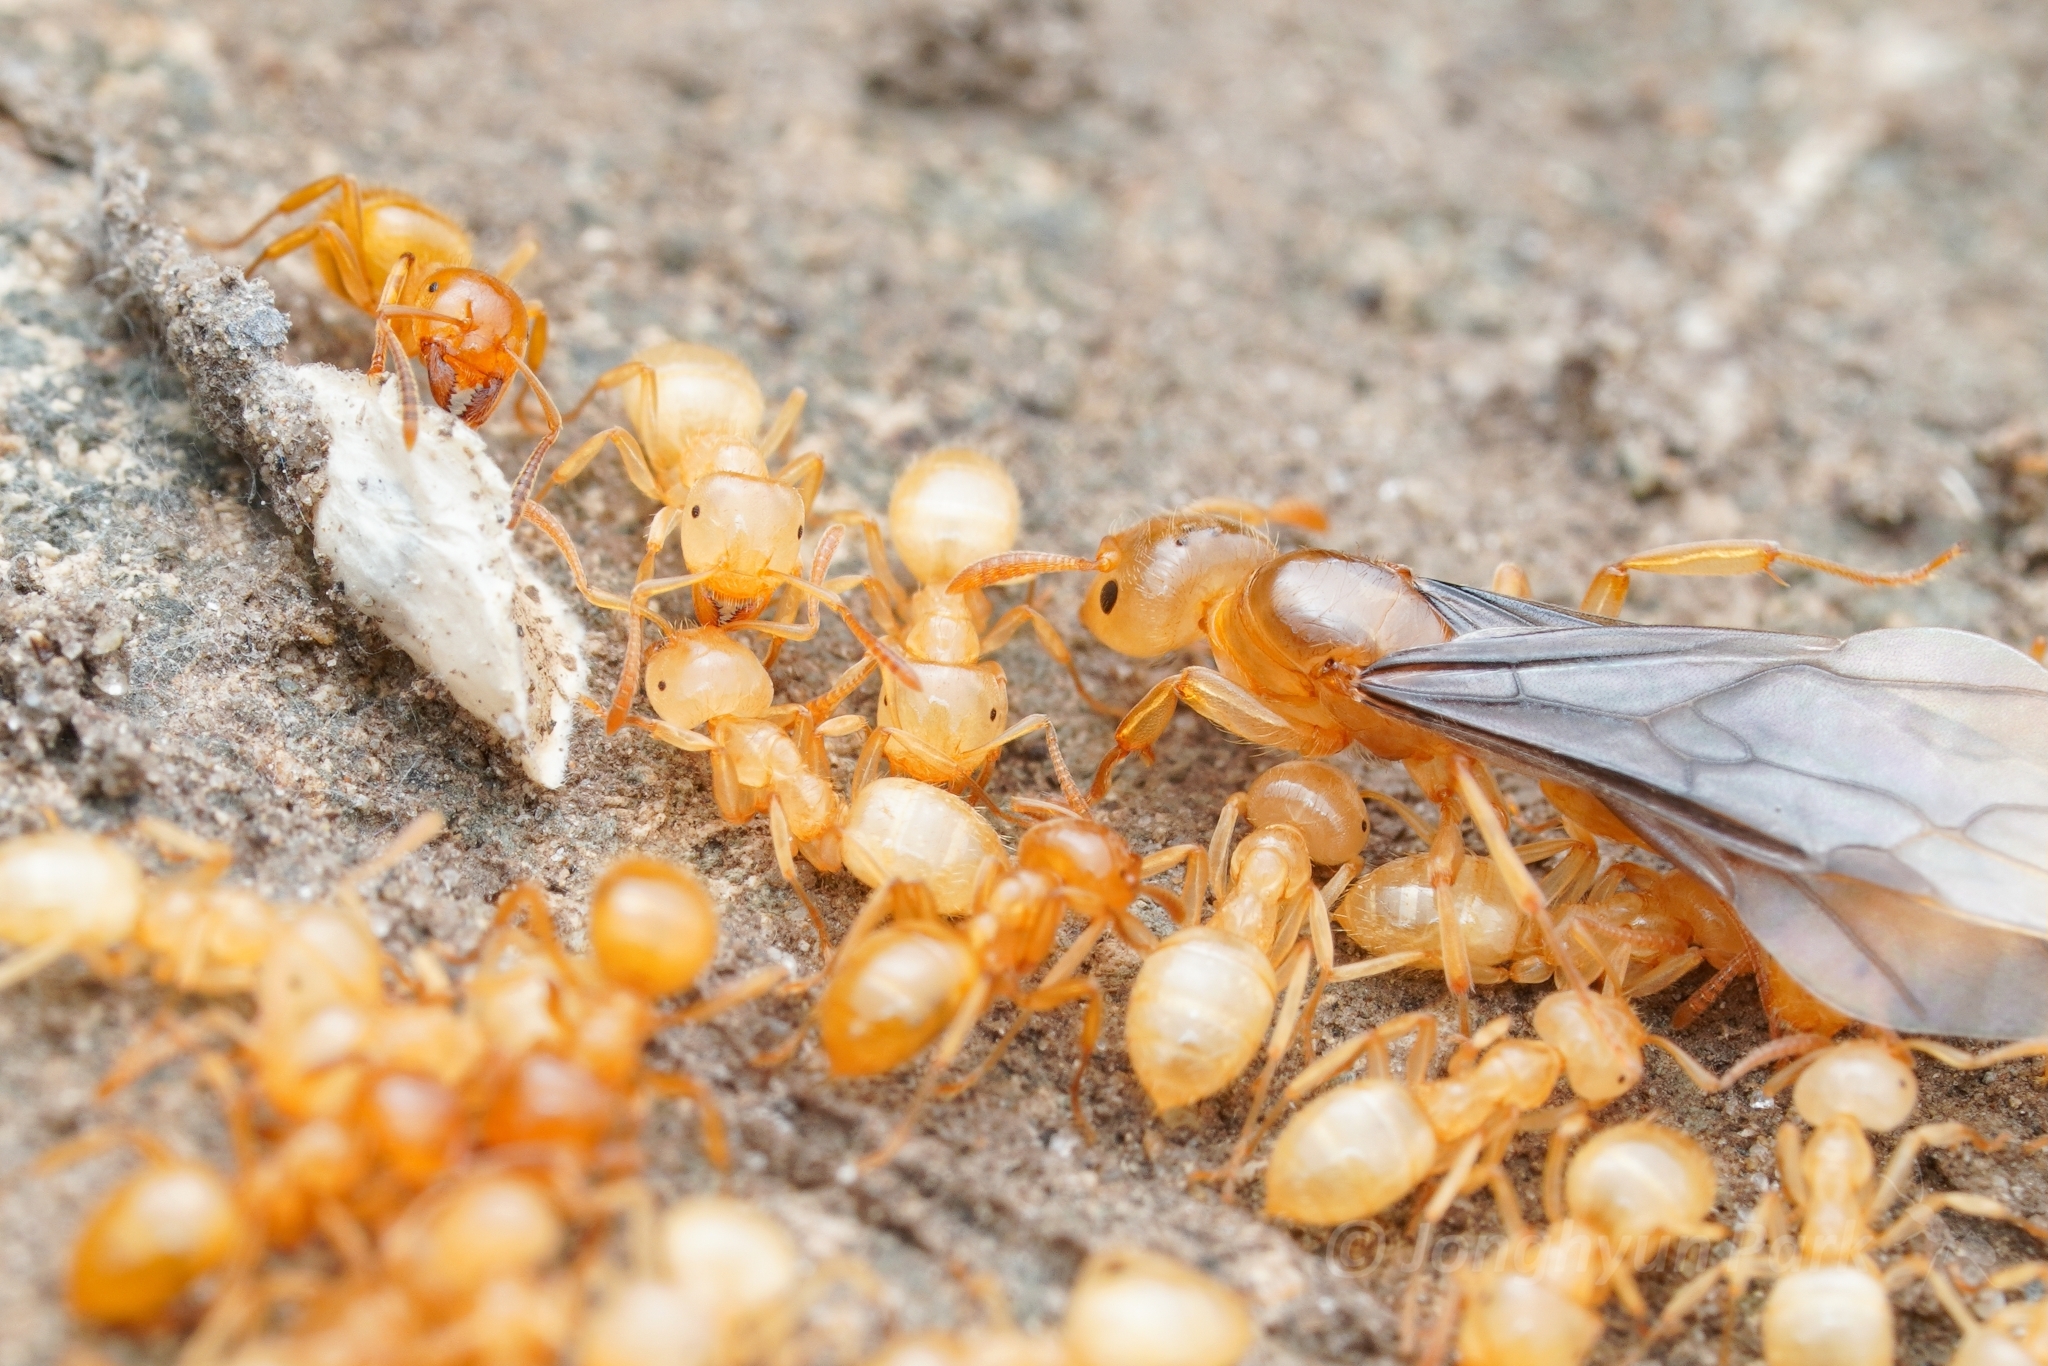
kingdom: Animalia
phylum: Arthropoda
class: Insecta
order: Hymenoptera
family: Formicidae
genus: Lasius
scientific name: Lasius claviger
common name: Common citronella ant
